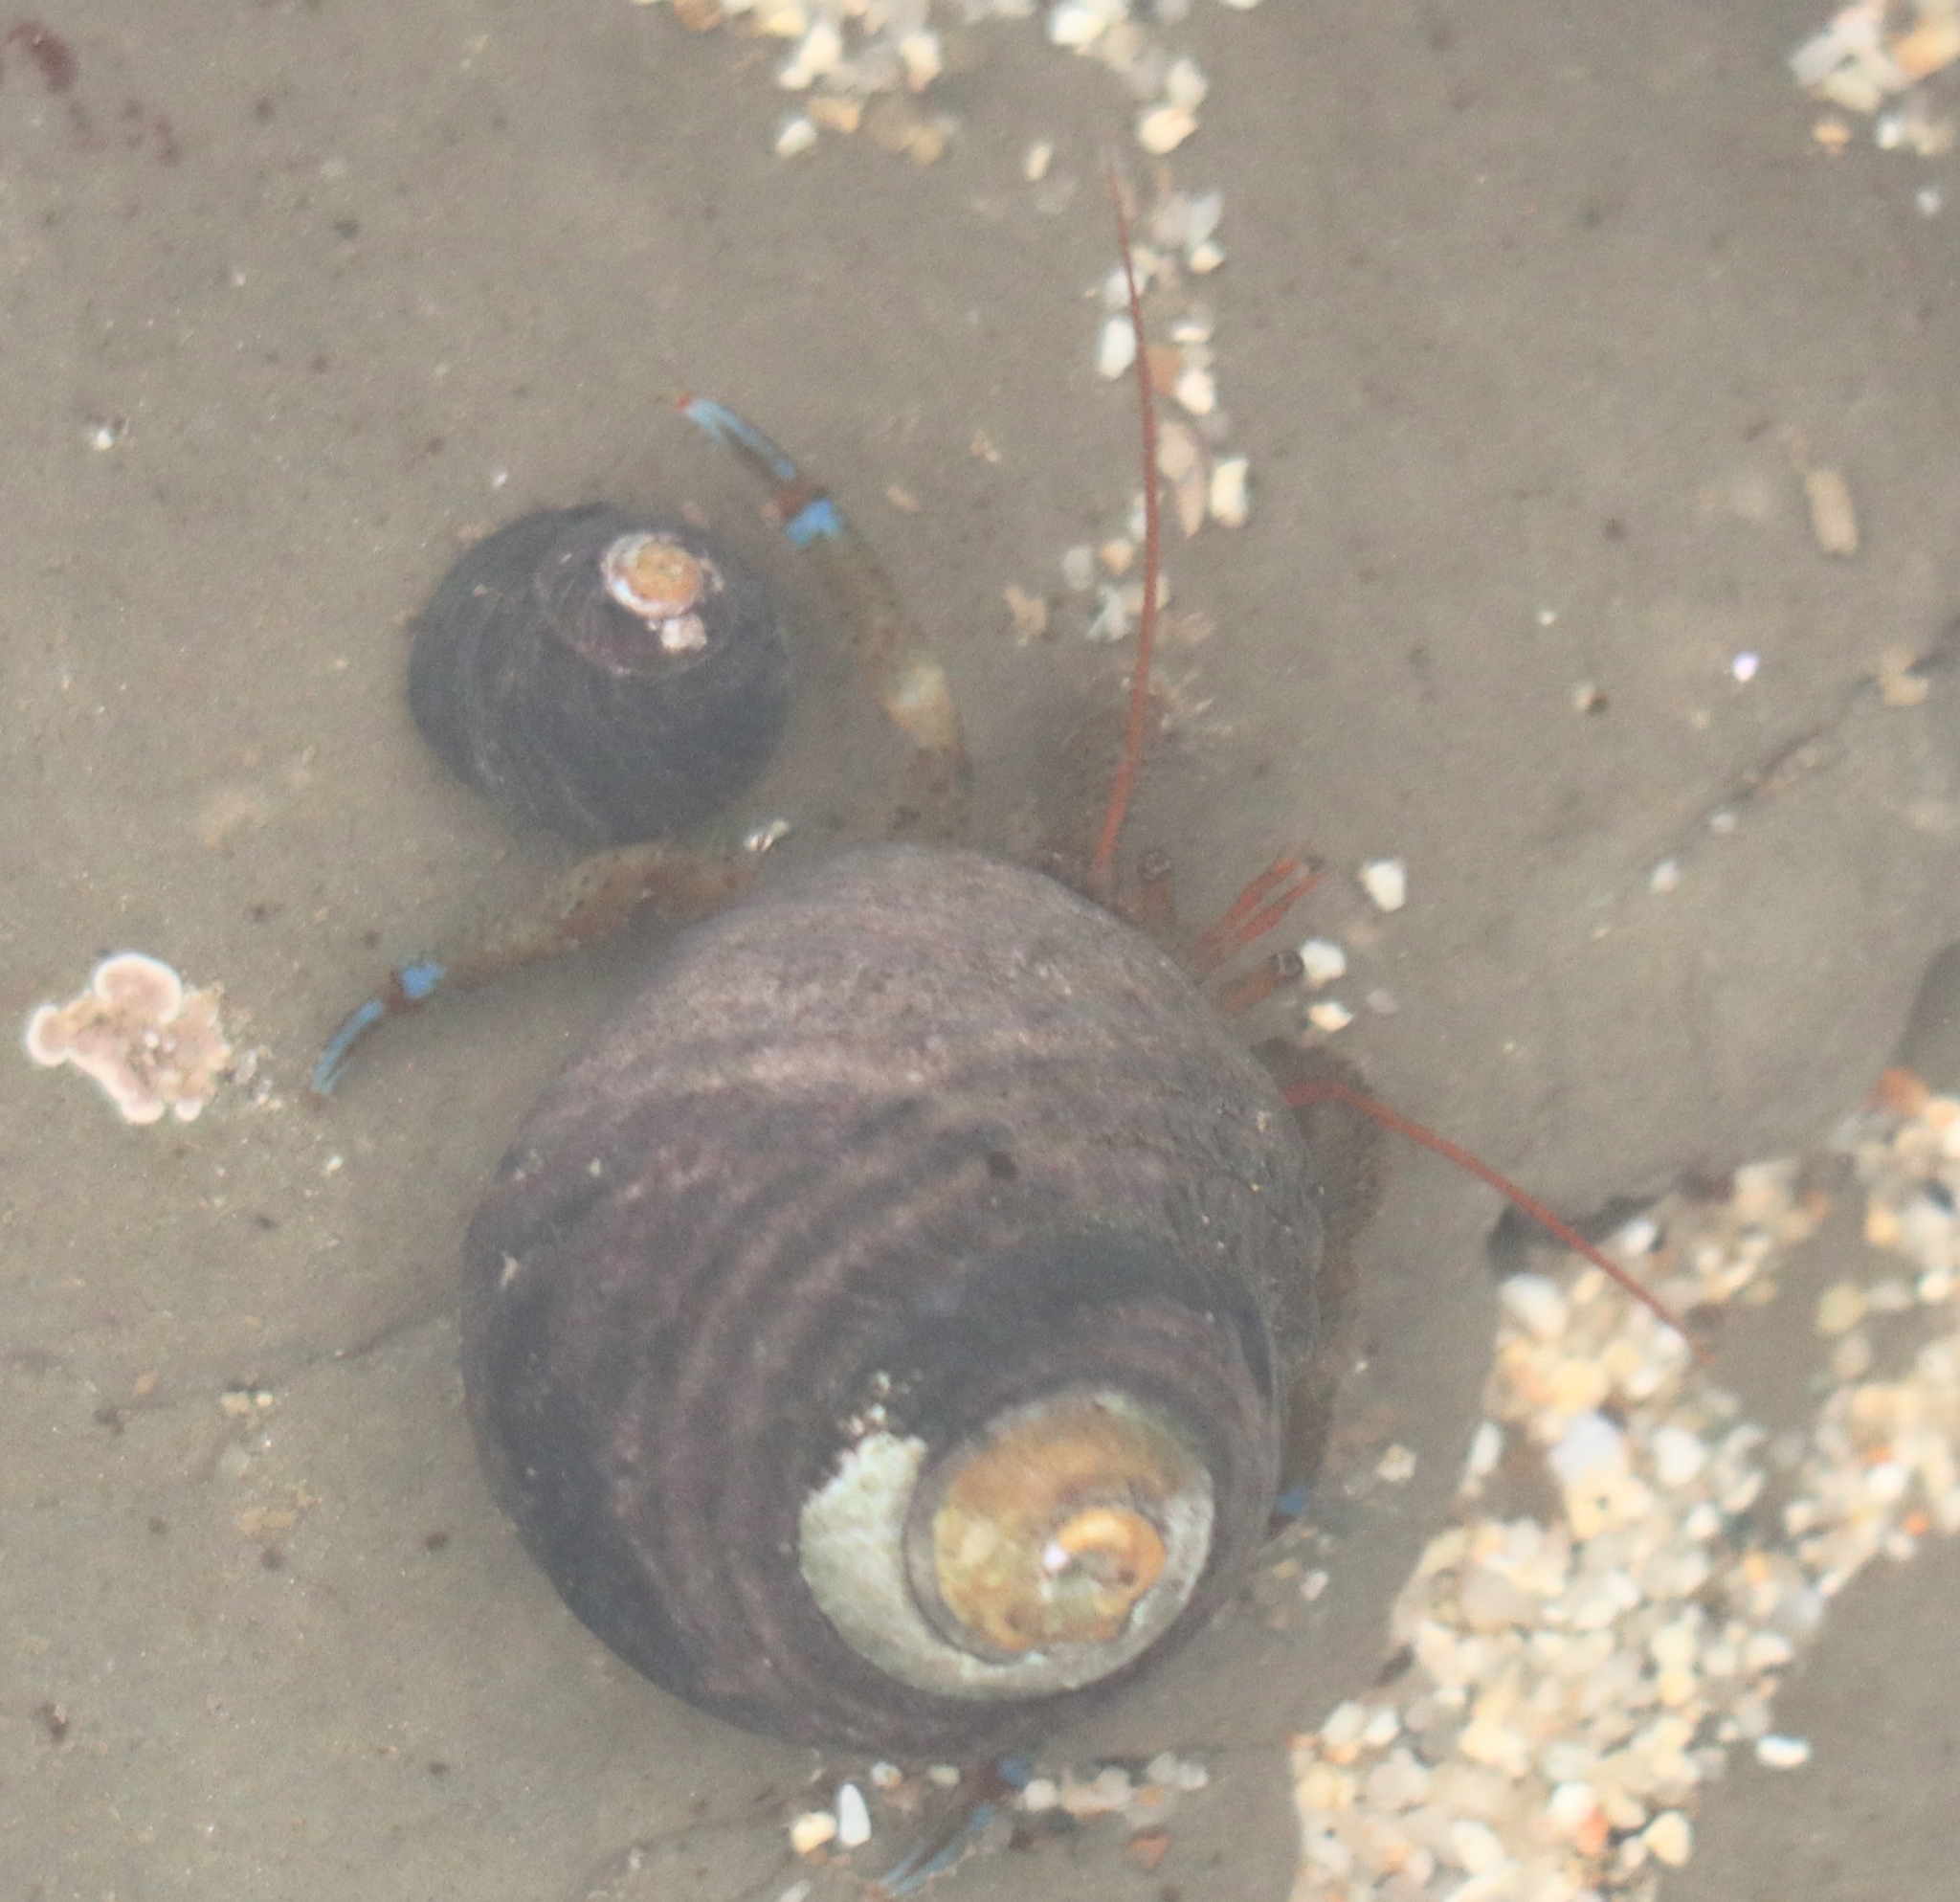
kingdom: Animalia
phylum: Arthropoda
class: Malacostraca
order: Decapoda
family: Paguridae
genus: Pagurus
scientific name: Pagurus samuelis
